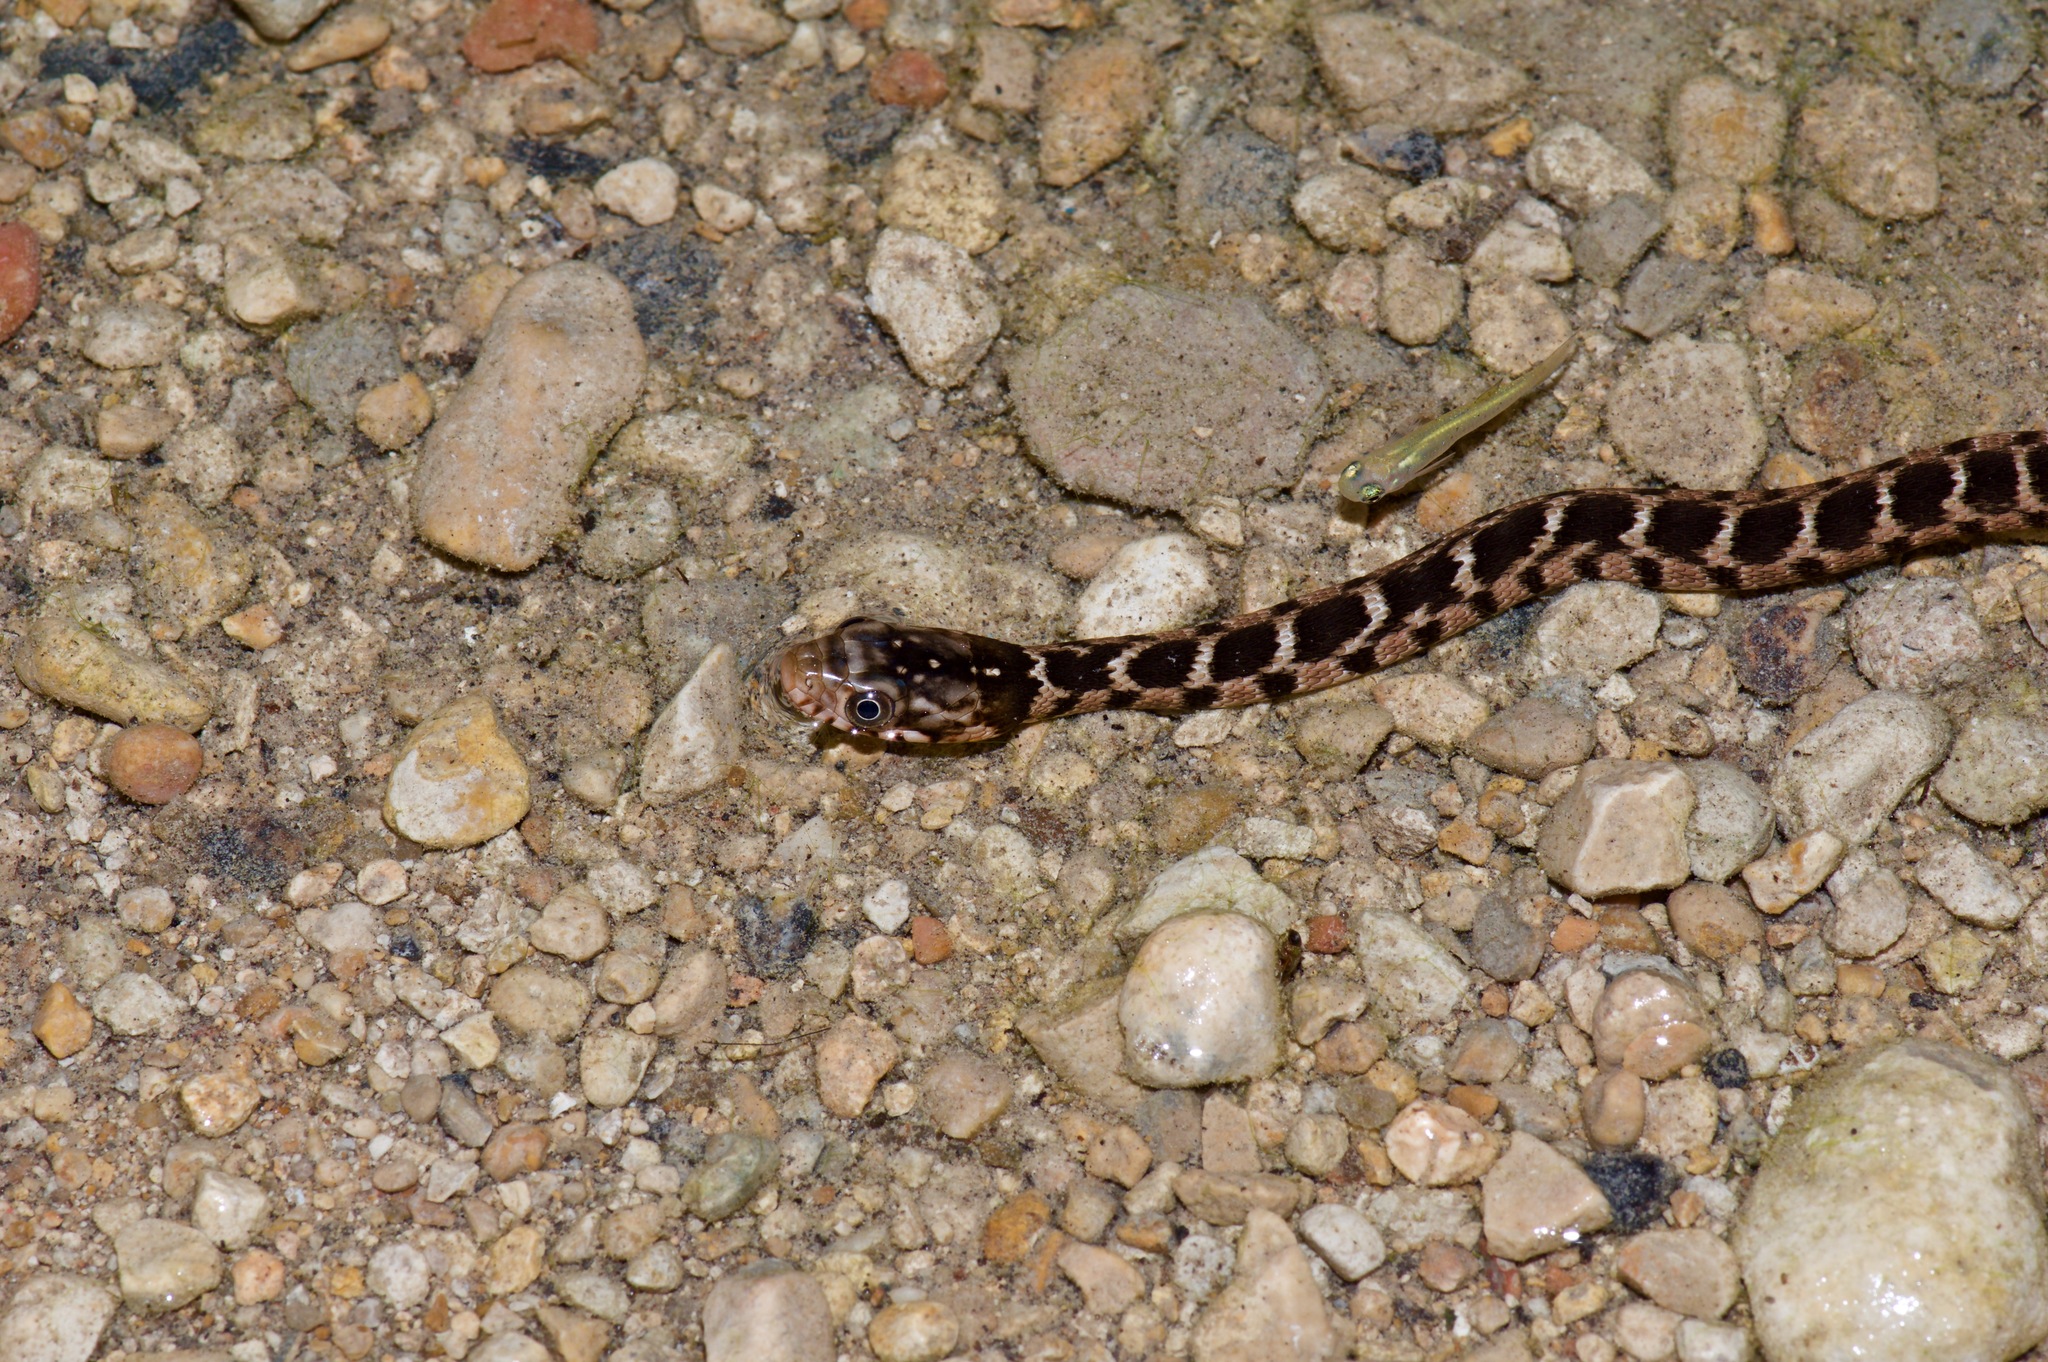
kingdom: Animalia
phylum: Chordata
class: Squamata
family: Colubridae
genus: Nerodia
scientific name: Nerodia erythrogaster
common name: Plainbelly water snake
